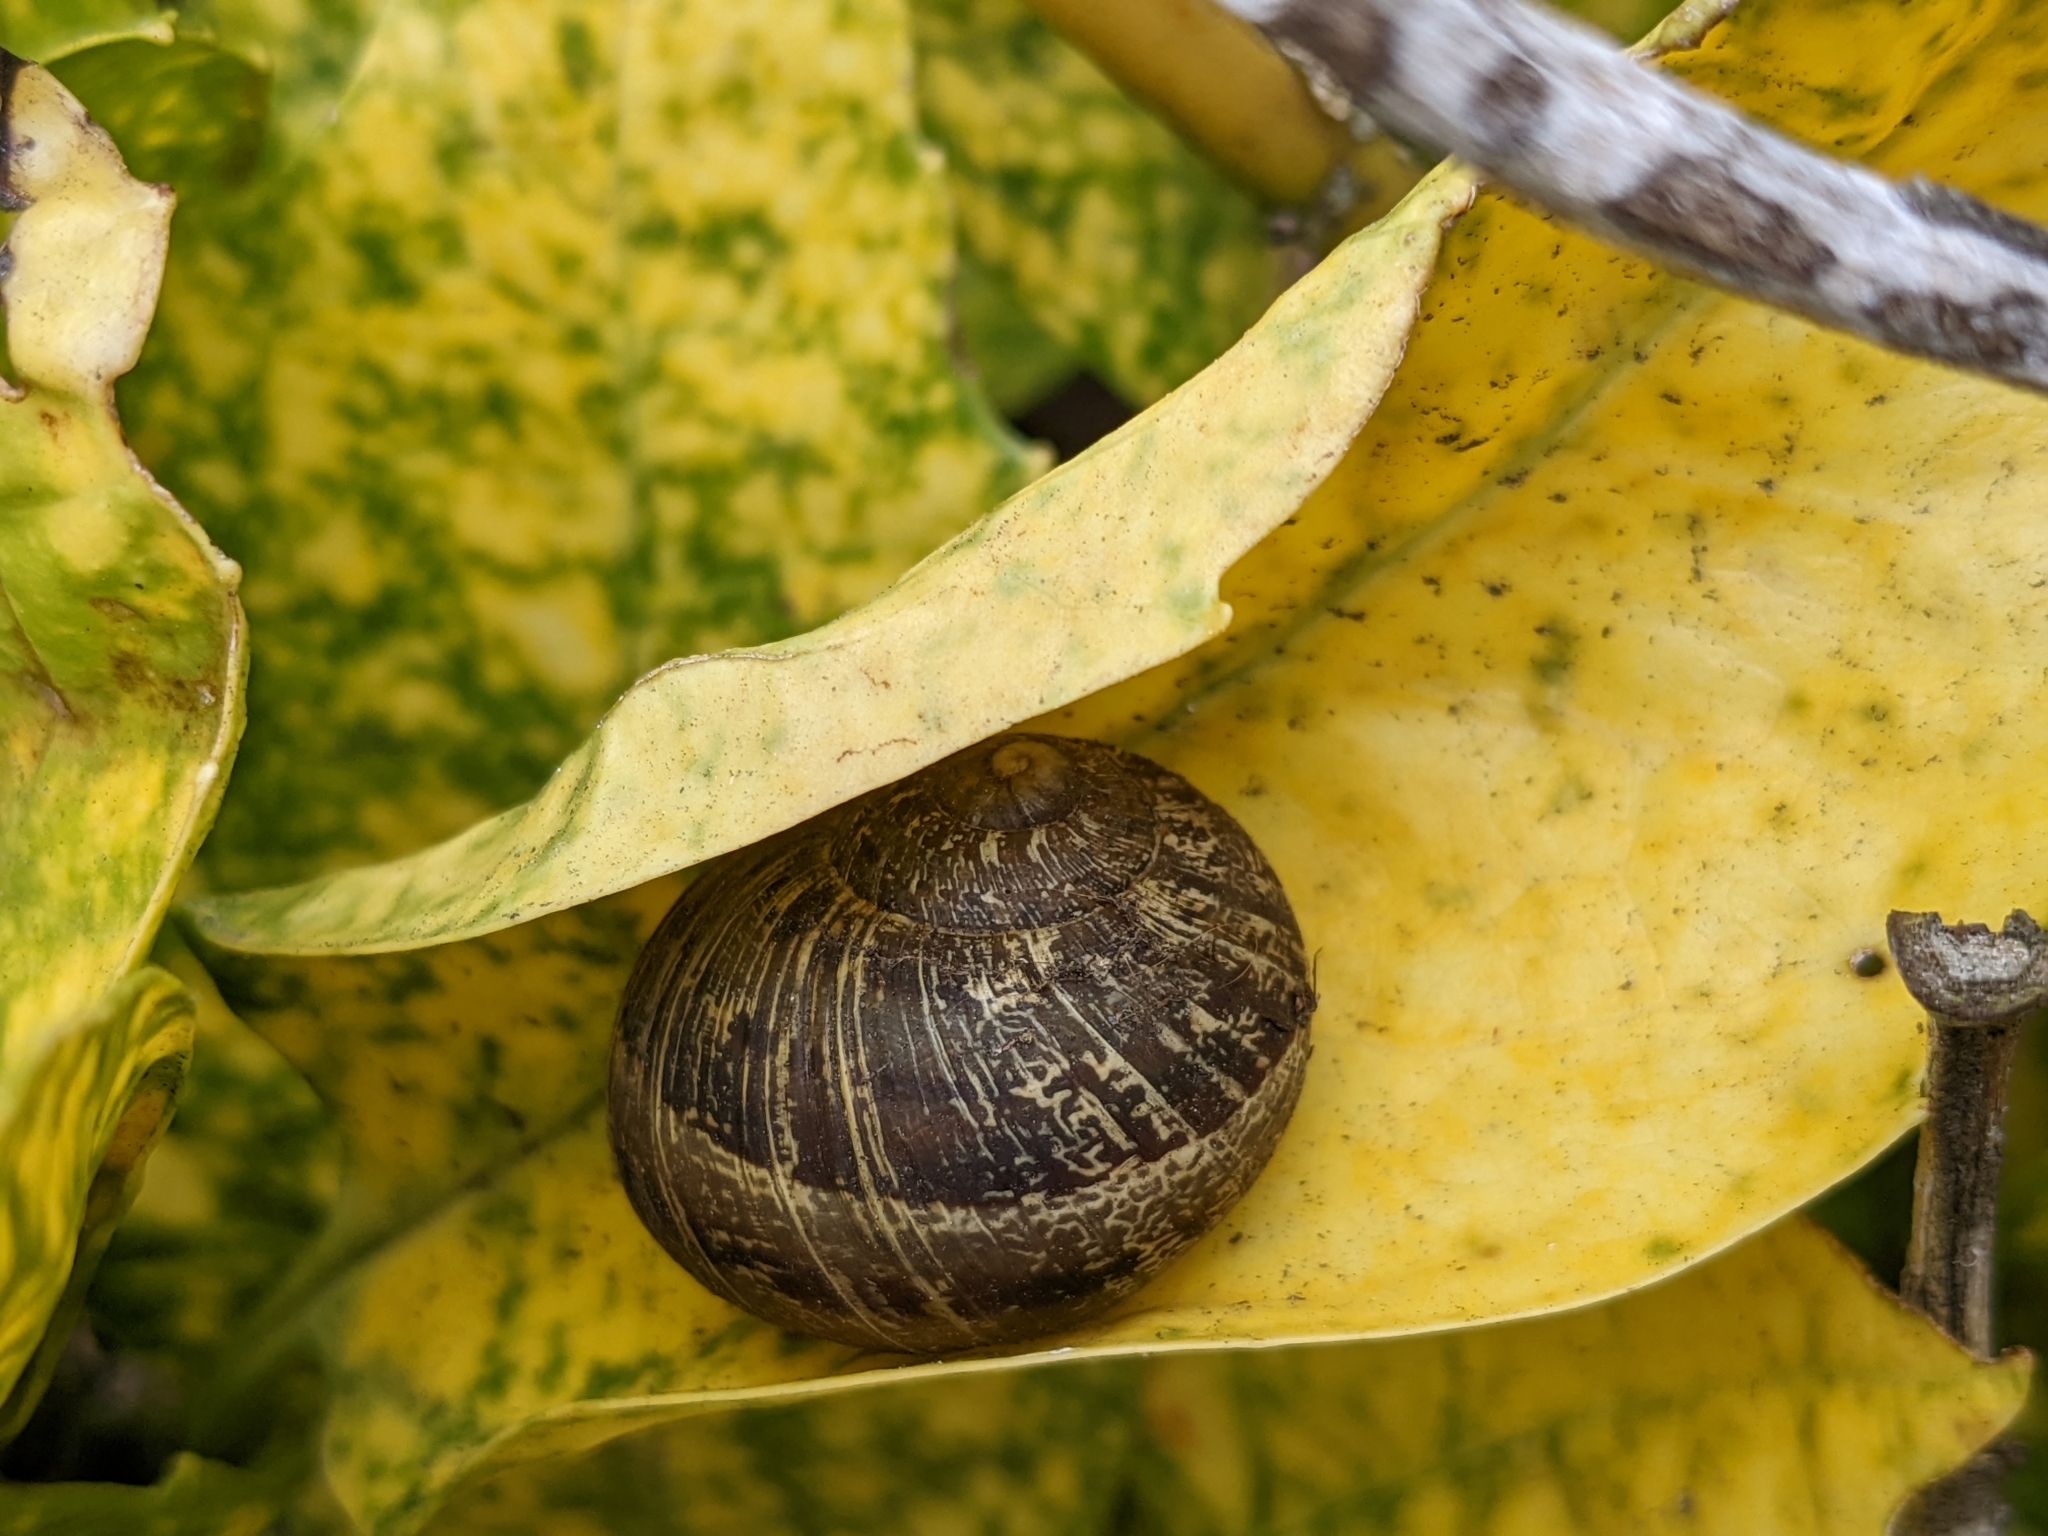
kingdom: Animalia
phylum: Mollusca
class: Gastropoda
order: Stylommatophora
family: Helicidae
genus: Cornu
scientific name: Cornu aspersum
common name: Brown garden snail
